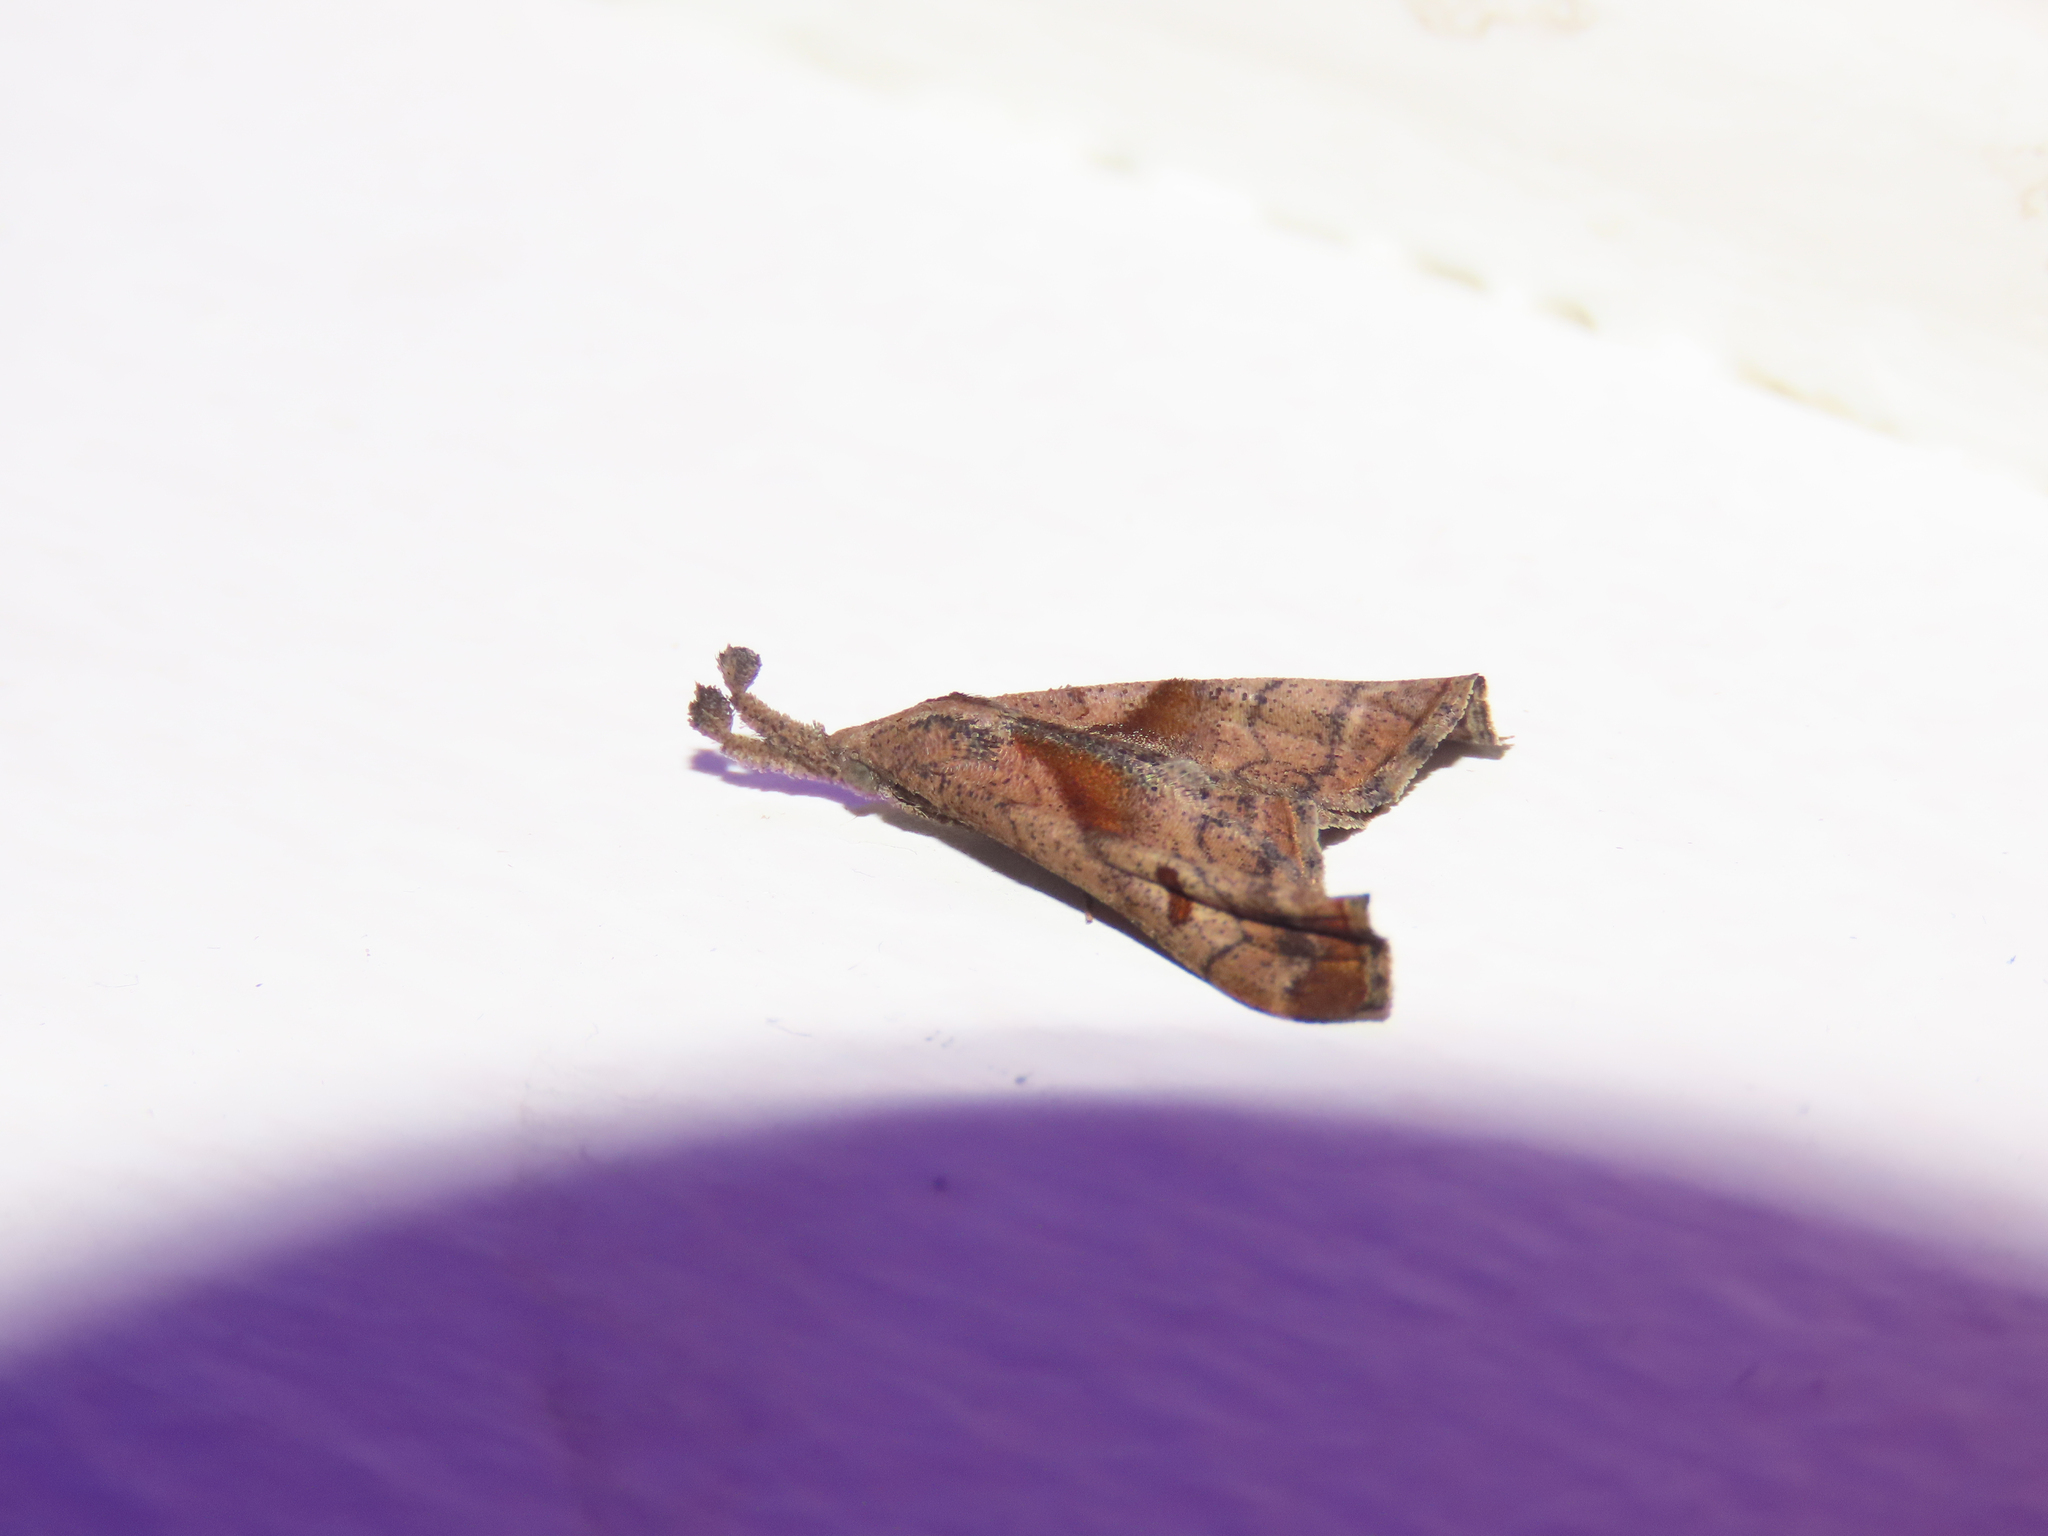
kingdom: Animalia
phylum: Arthropoda
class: Insecta
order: Lepidoptera
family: Erebidae
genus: Palthis
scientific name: Palthis angulalis
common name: Dark-spotted palthis moth
